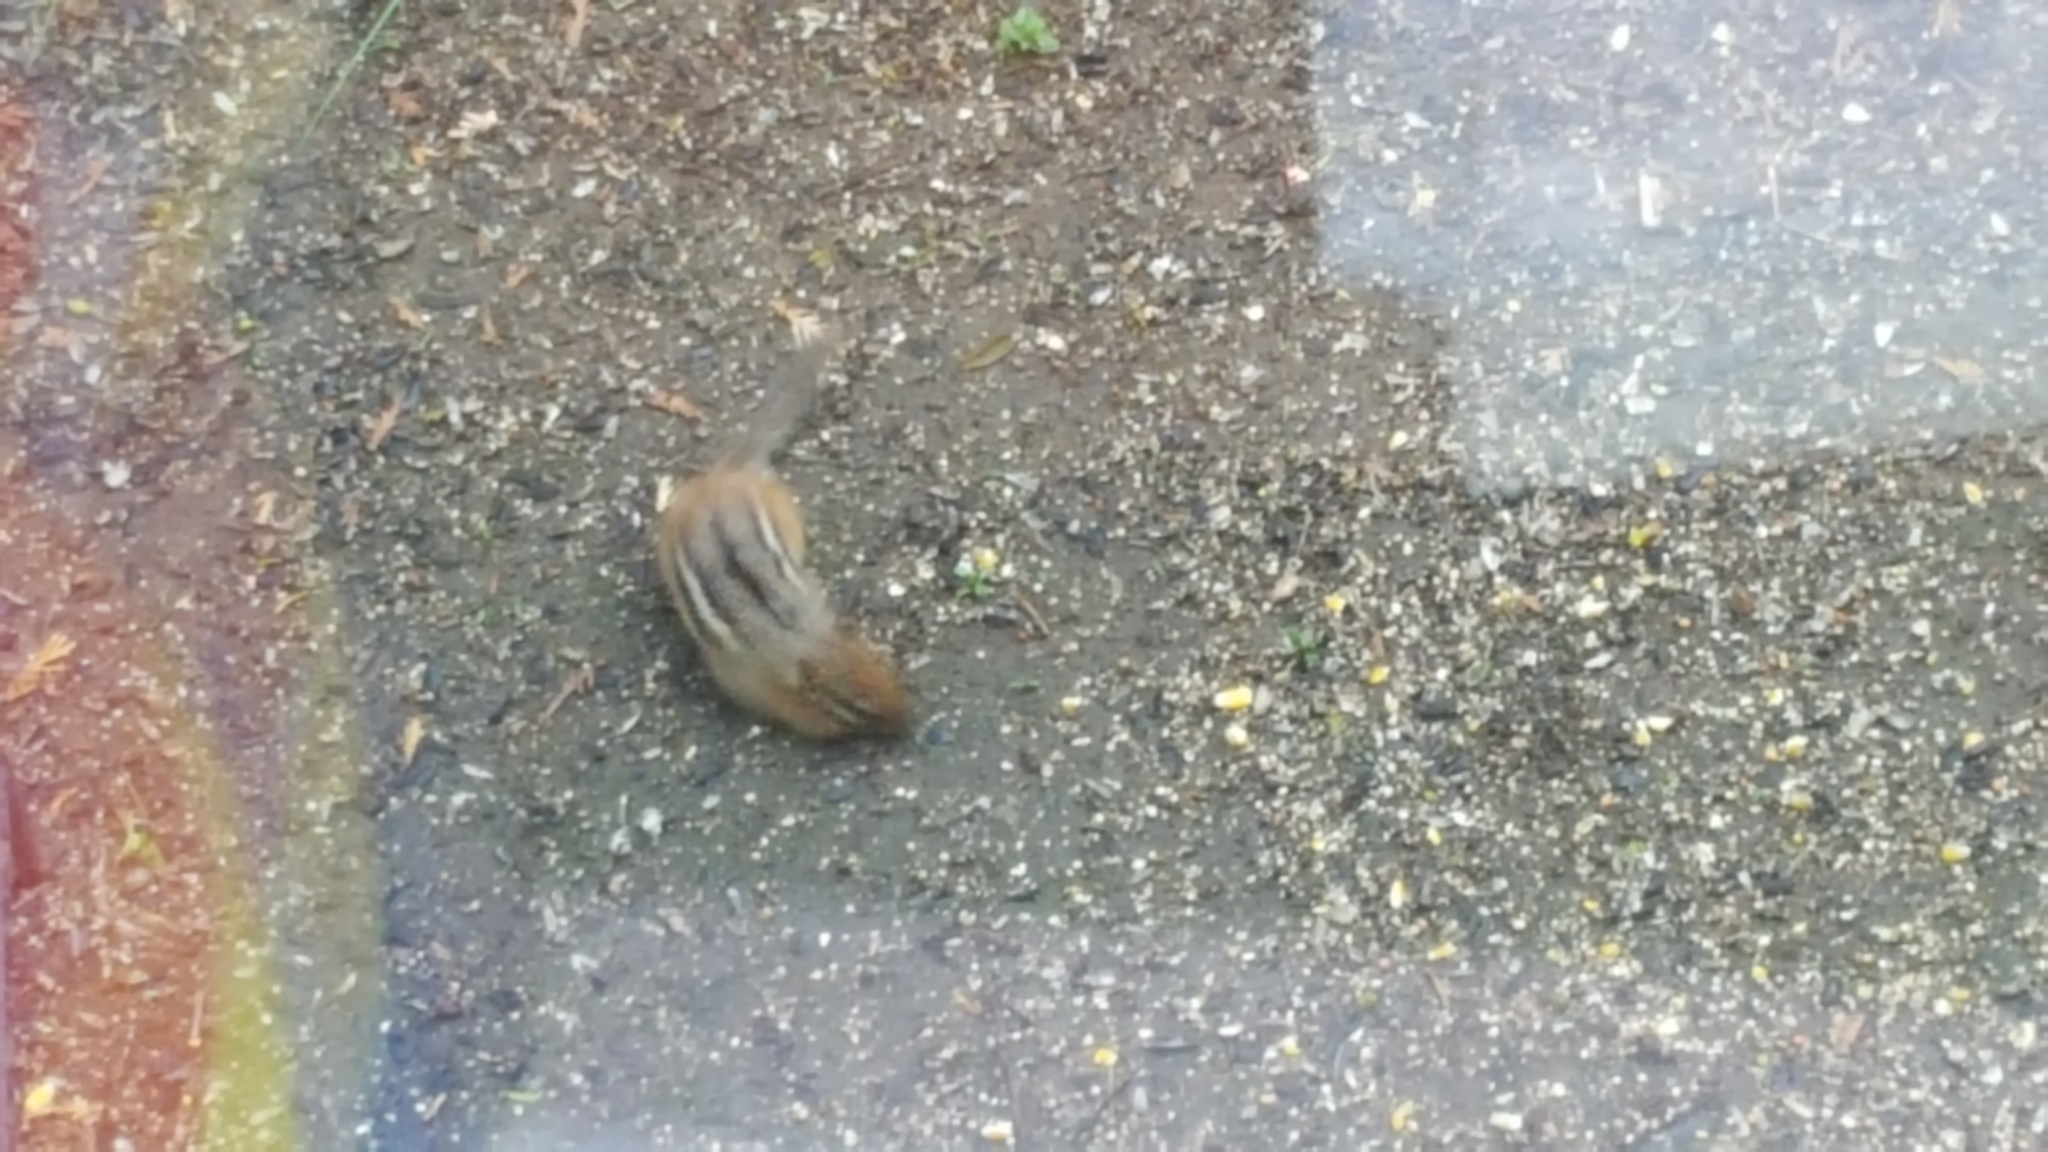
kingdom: Animalia
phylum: Chordata
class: Mammalia
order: Rodentia
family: Sciuridae
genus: Tamias
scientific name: Tamias striatus
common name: Eastern chipmunk
